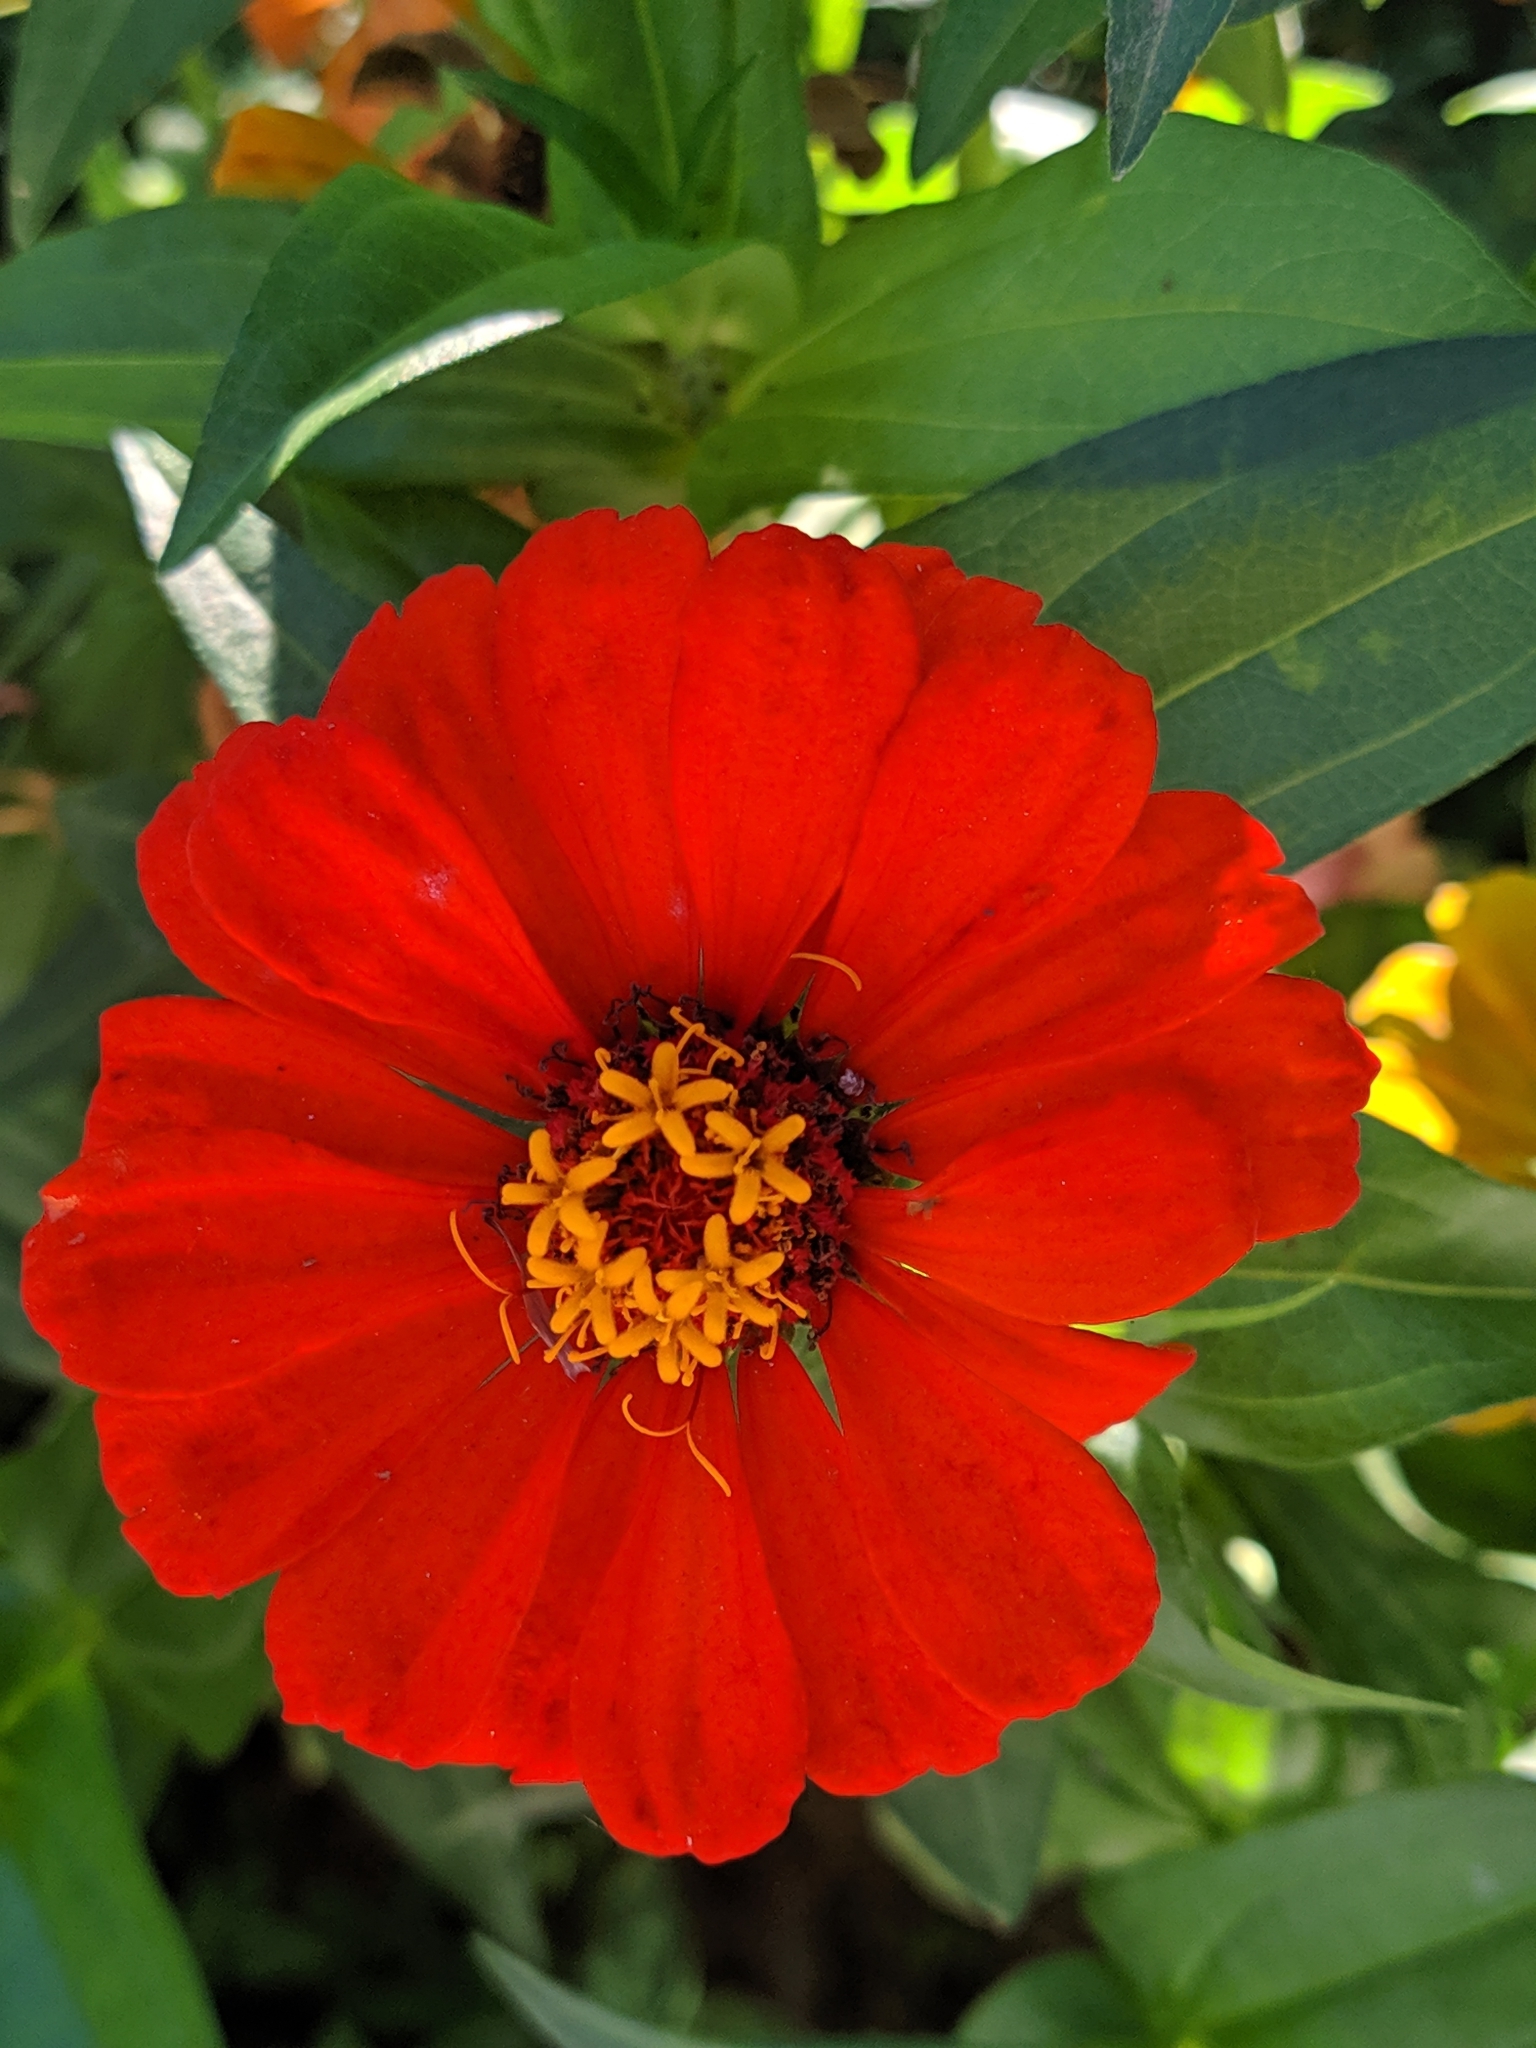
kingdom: Plantae
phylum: Tracheophyta
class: Magnoliopsida
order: Asterales
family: Asteraceae
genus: Zinnia
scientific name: Zinnia elegans
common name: Youth-and-age
